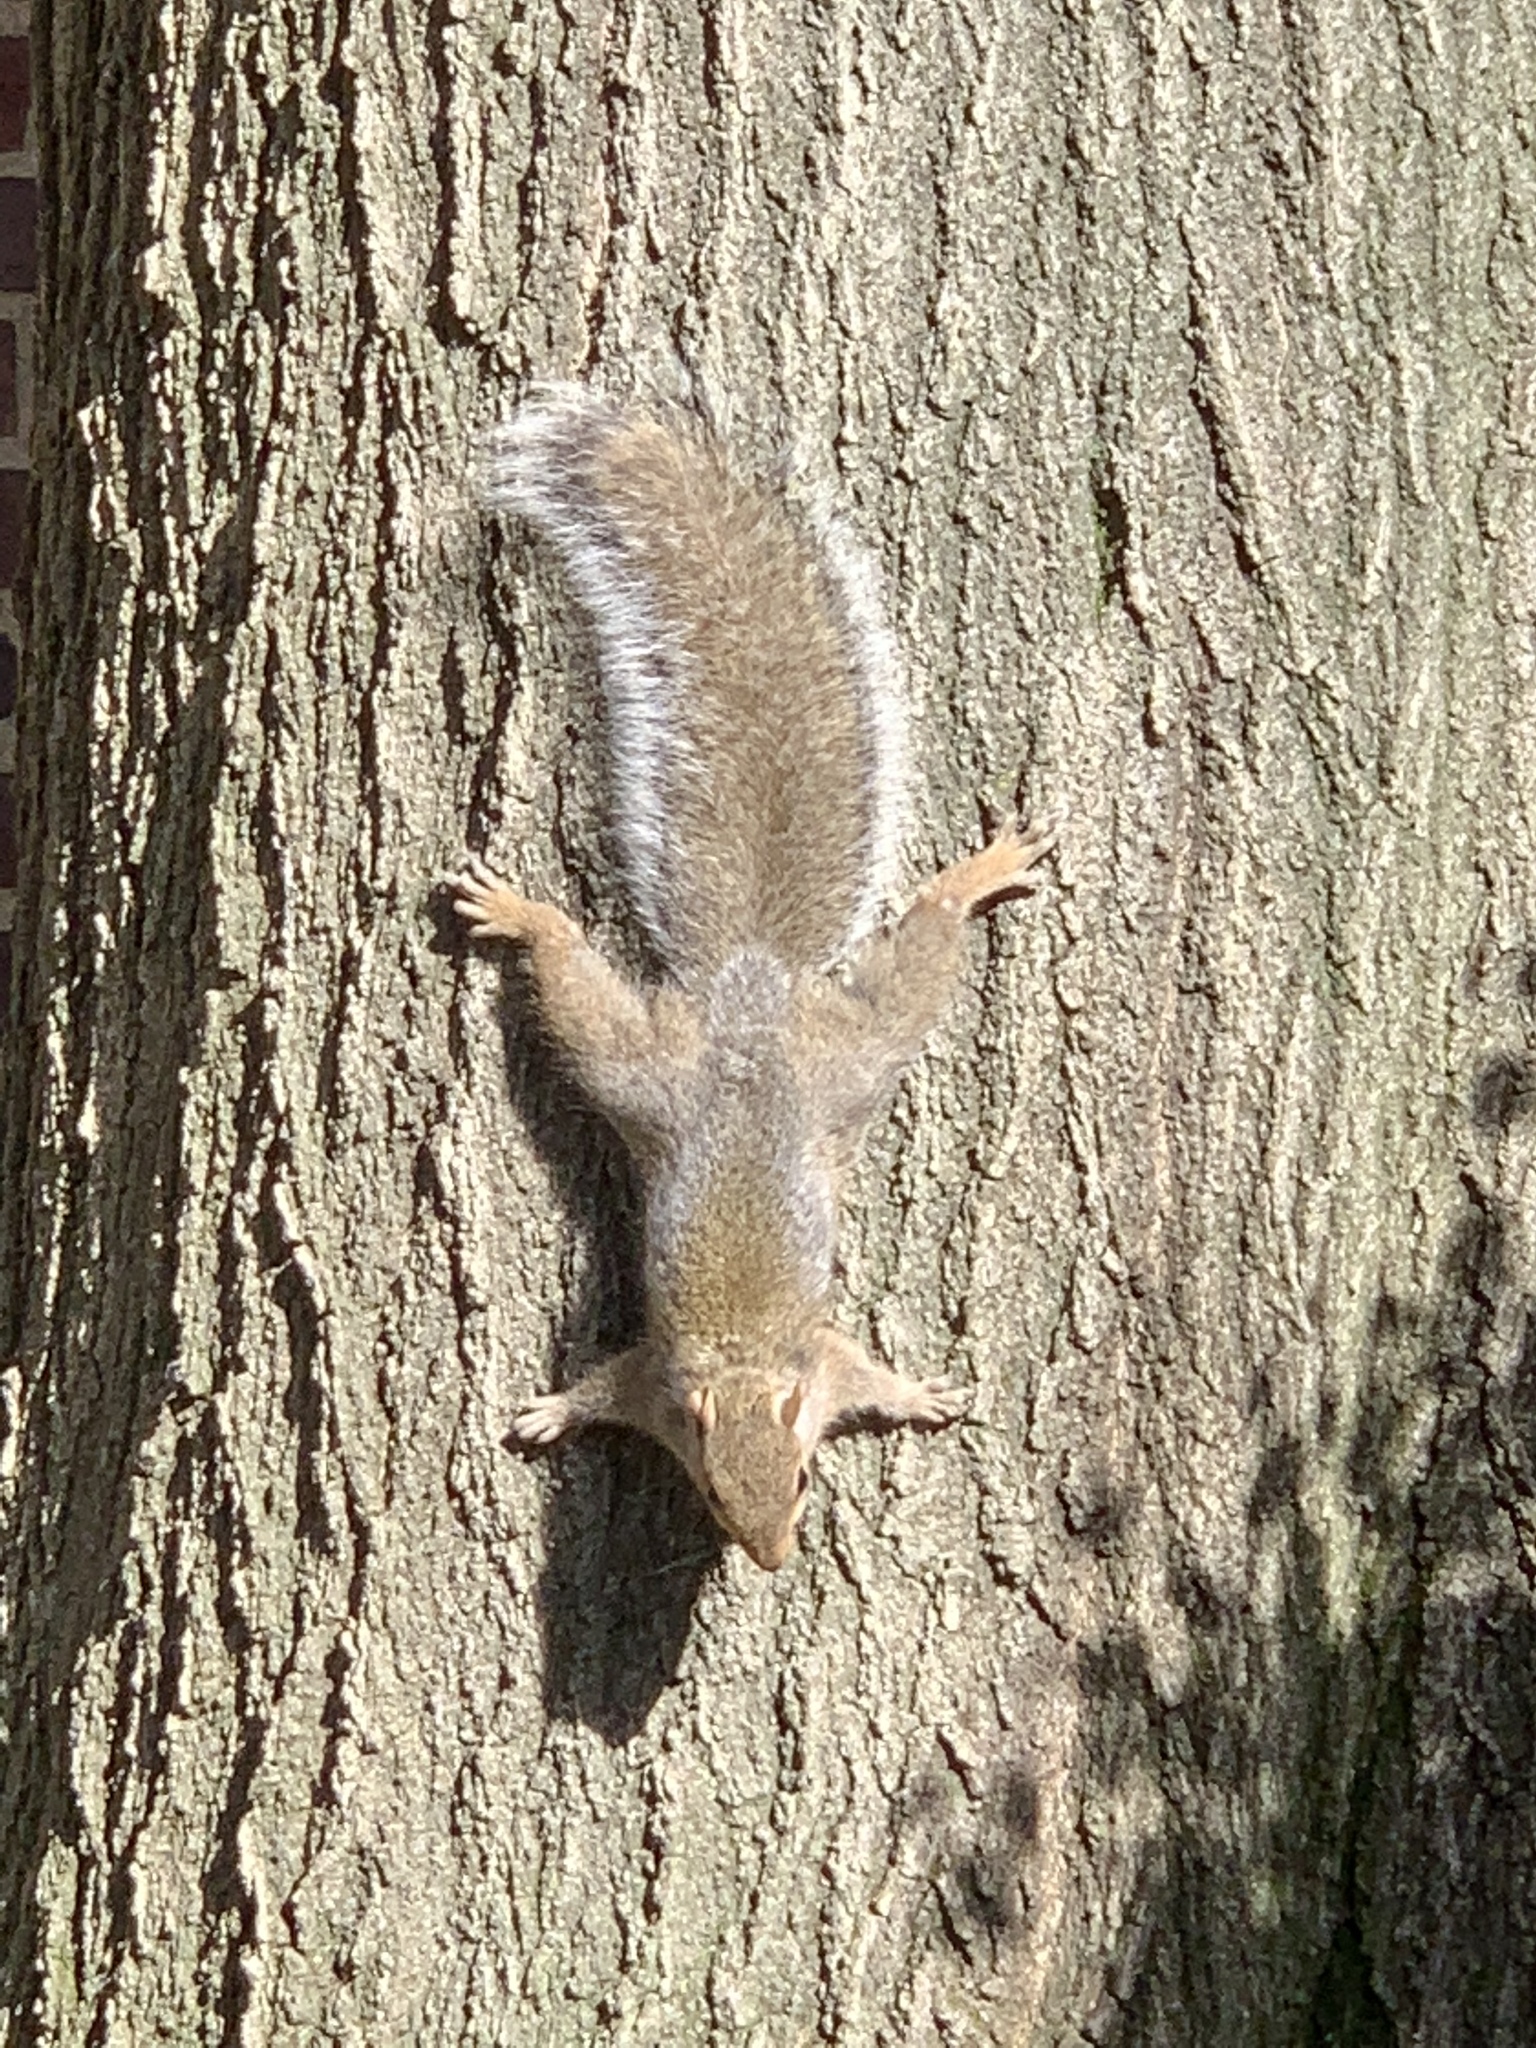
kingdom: Animalia
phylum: Chordata
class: Mammalia
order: Rodentia
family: Sciuridae
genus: Sciurus
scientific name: Sciurus carolinensis
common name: Eastern gray squirrel
